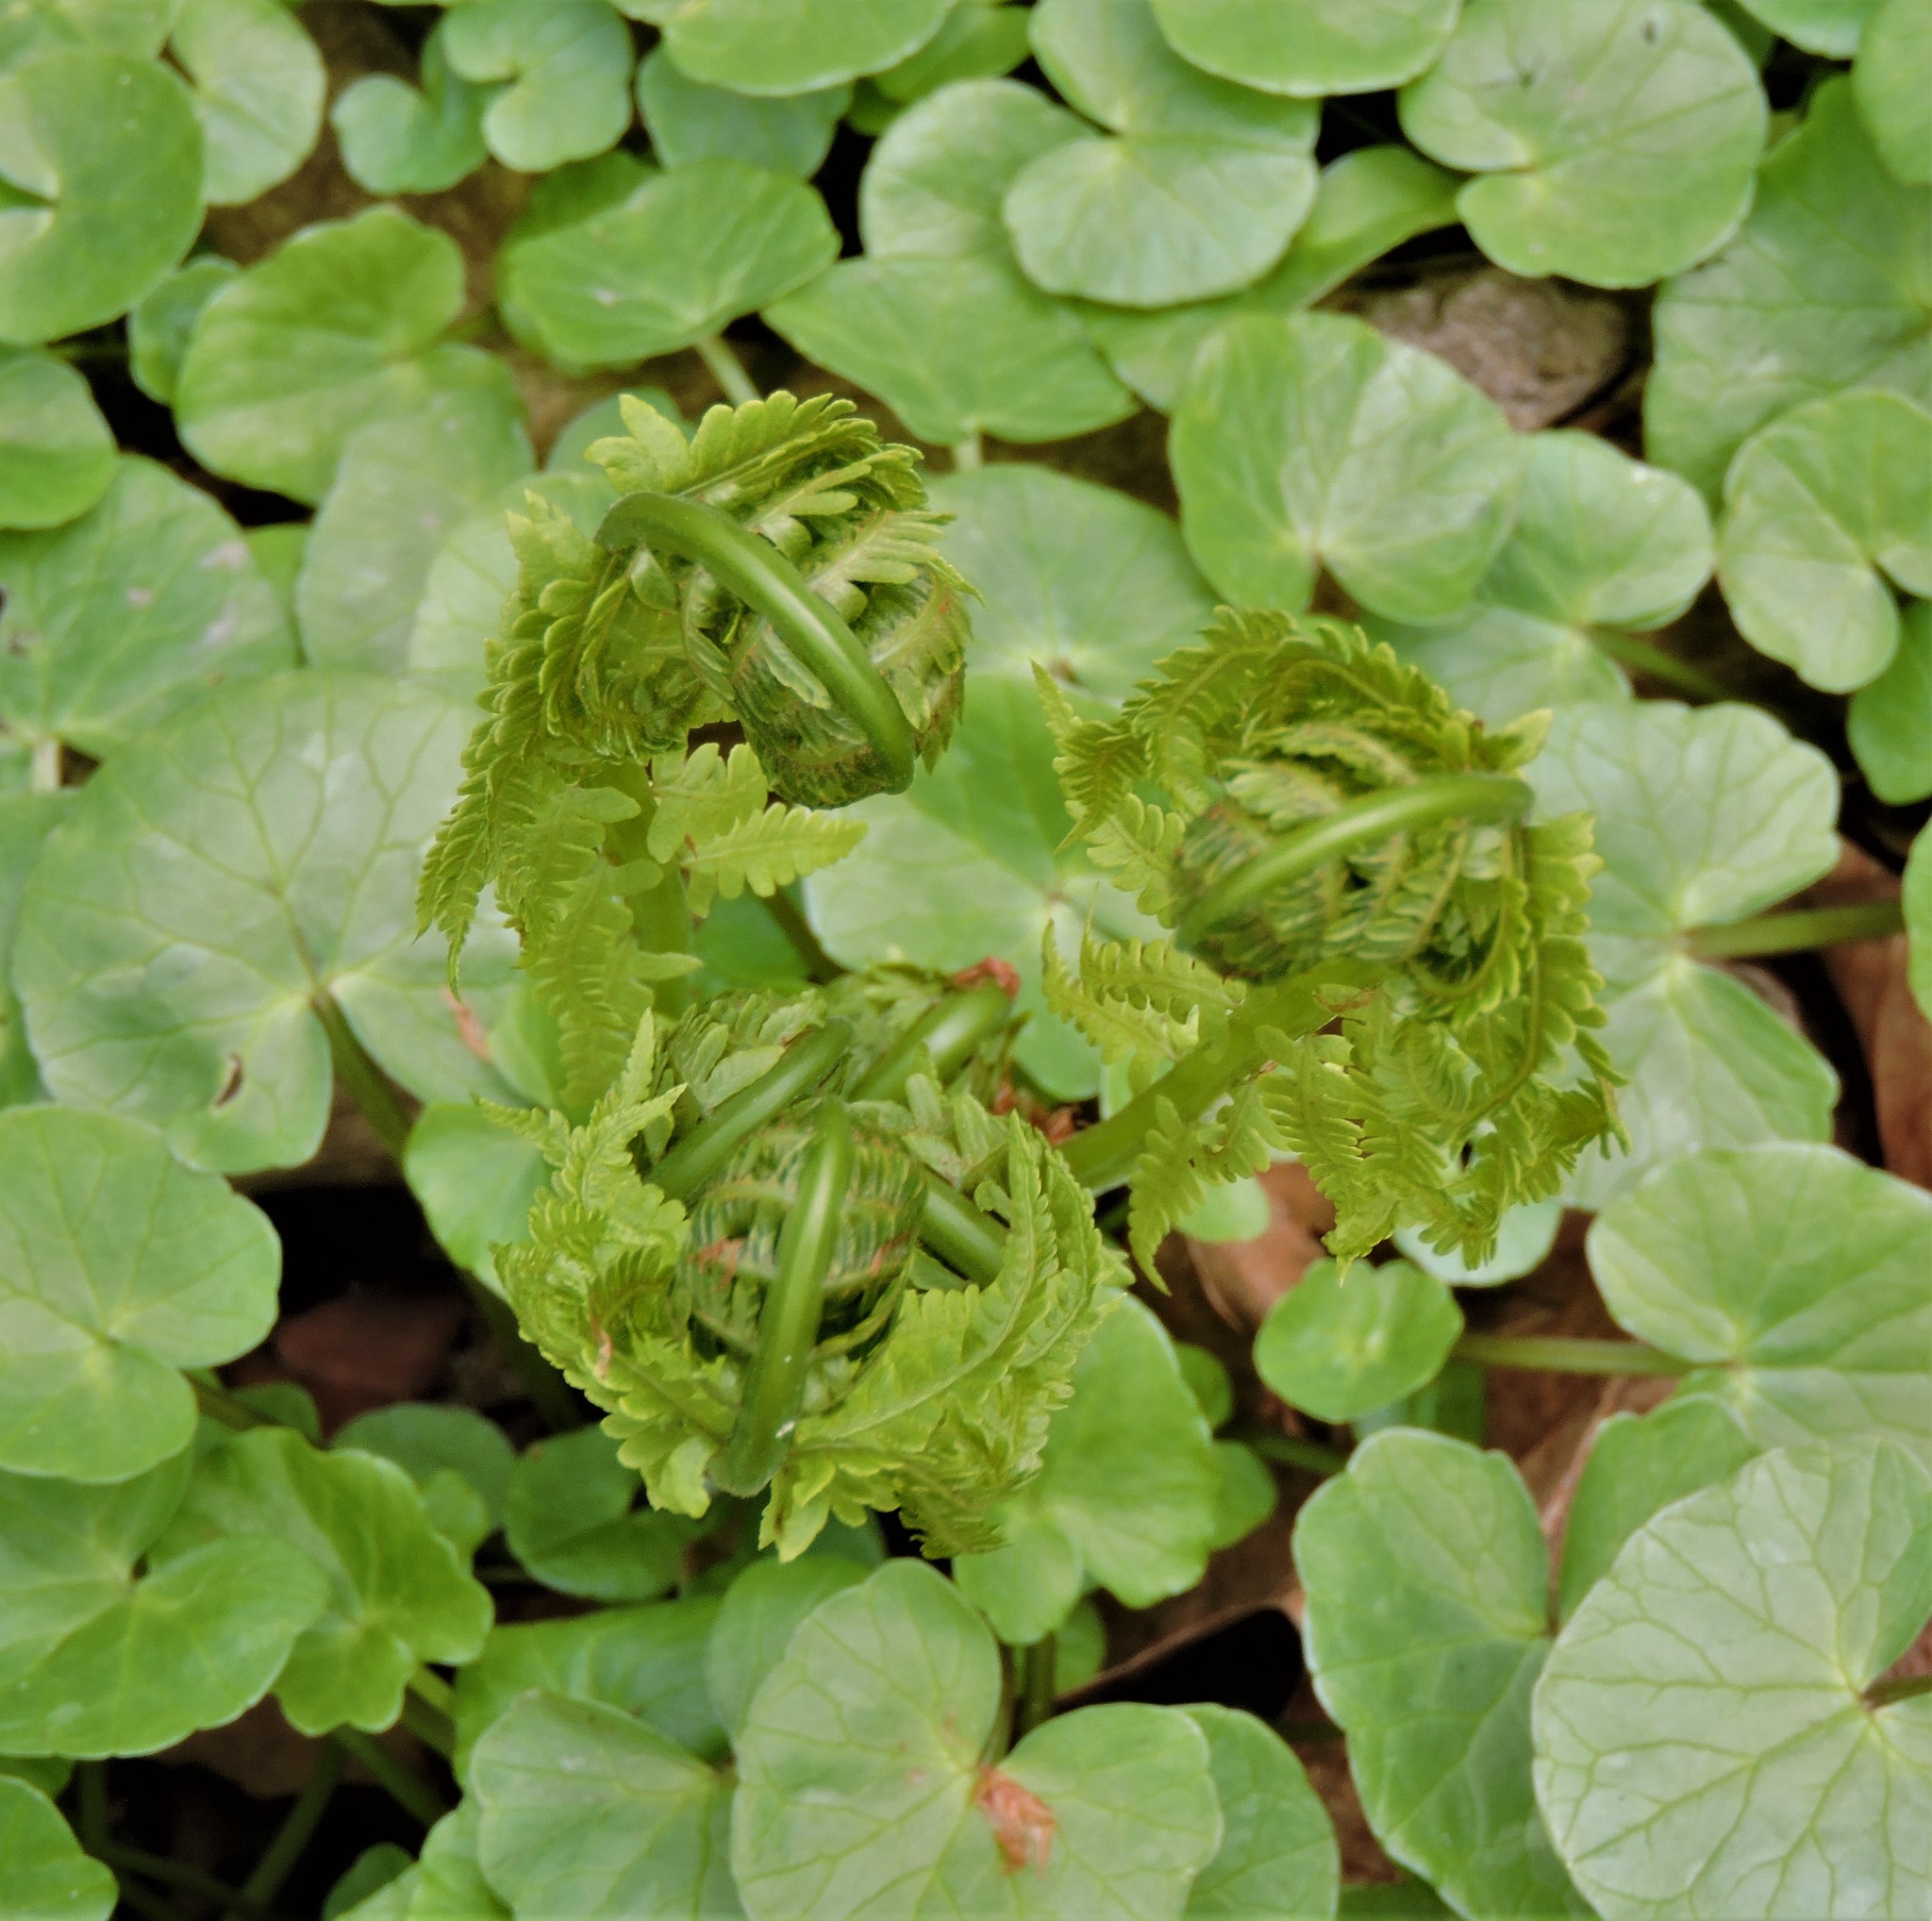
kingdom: Plantae
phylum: Tracheophyta
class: Polypodiopsida
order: Polypodiales
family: Onocleaceae
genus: Matteuccia
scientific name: Matteuccia struthiopteris
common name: Ostrich fern
